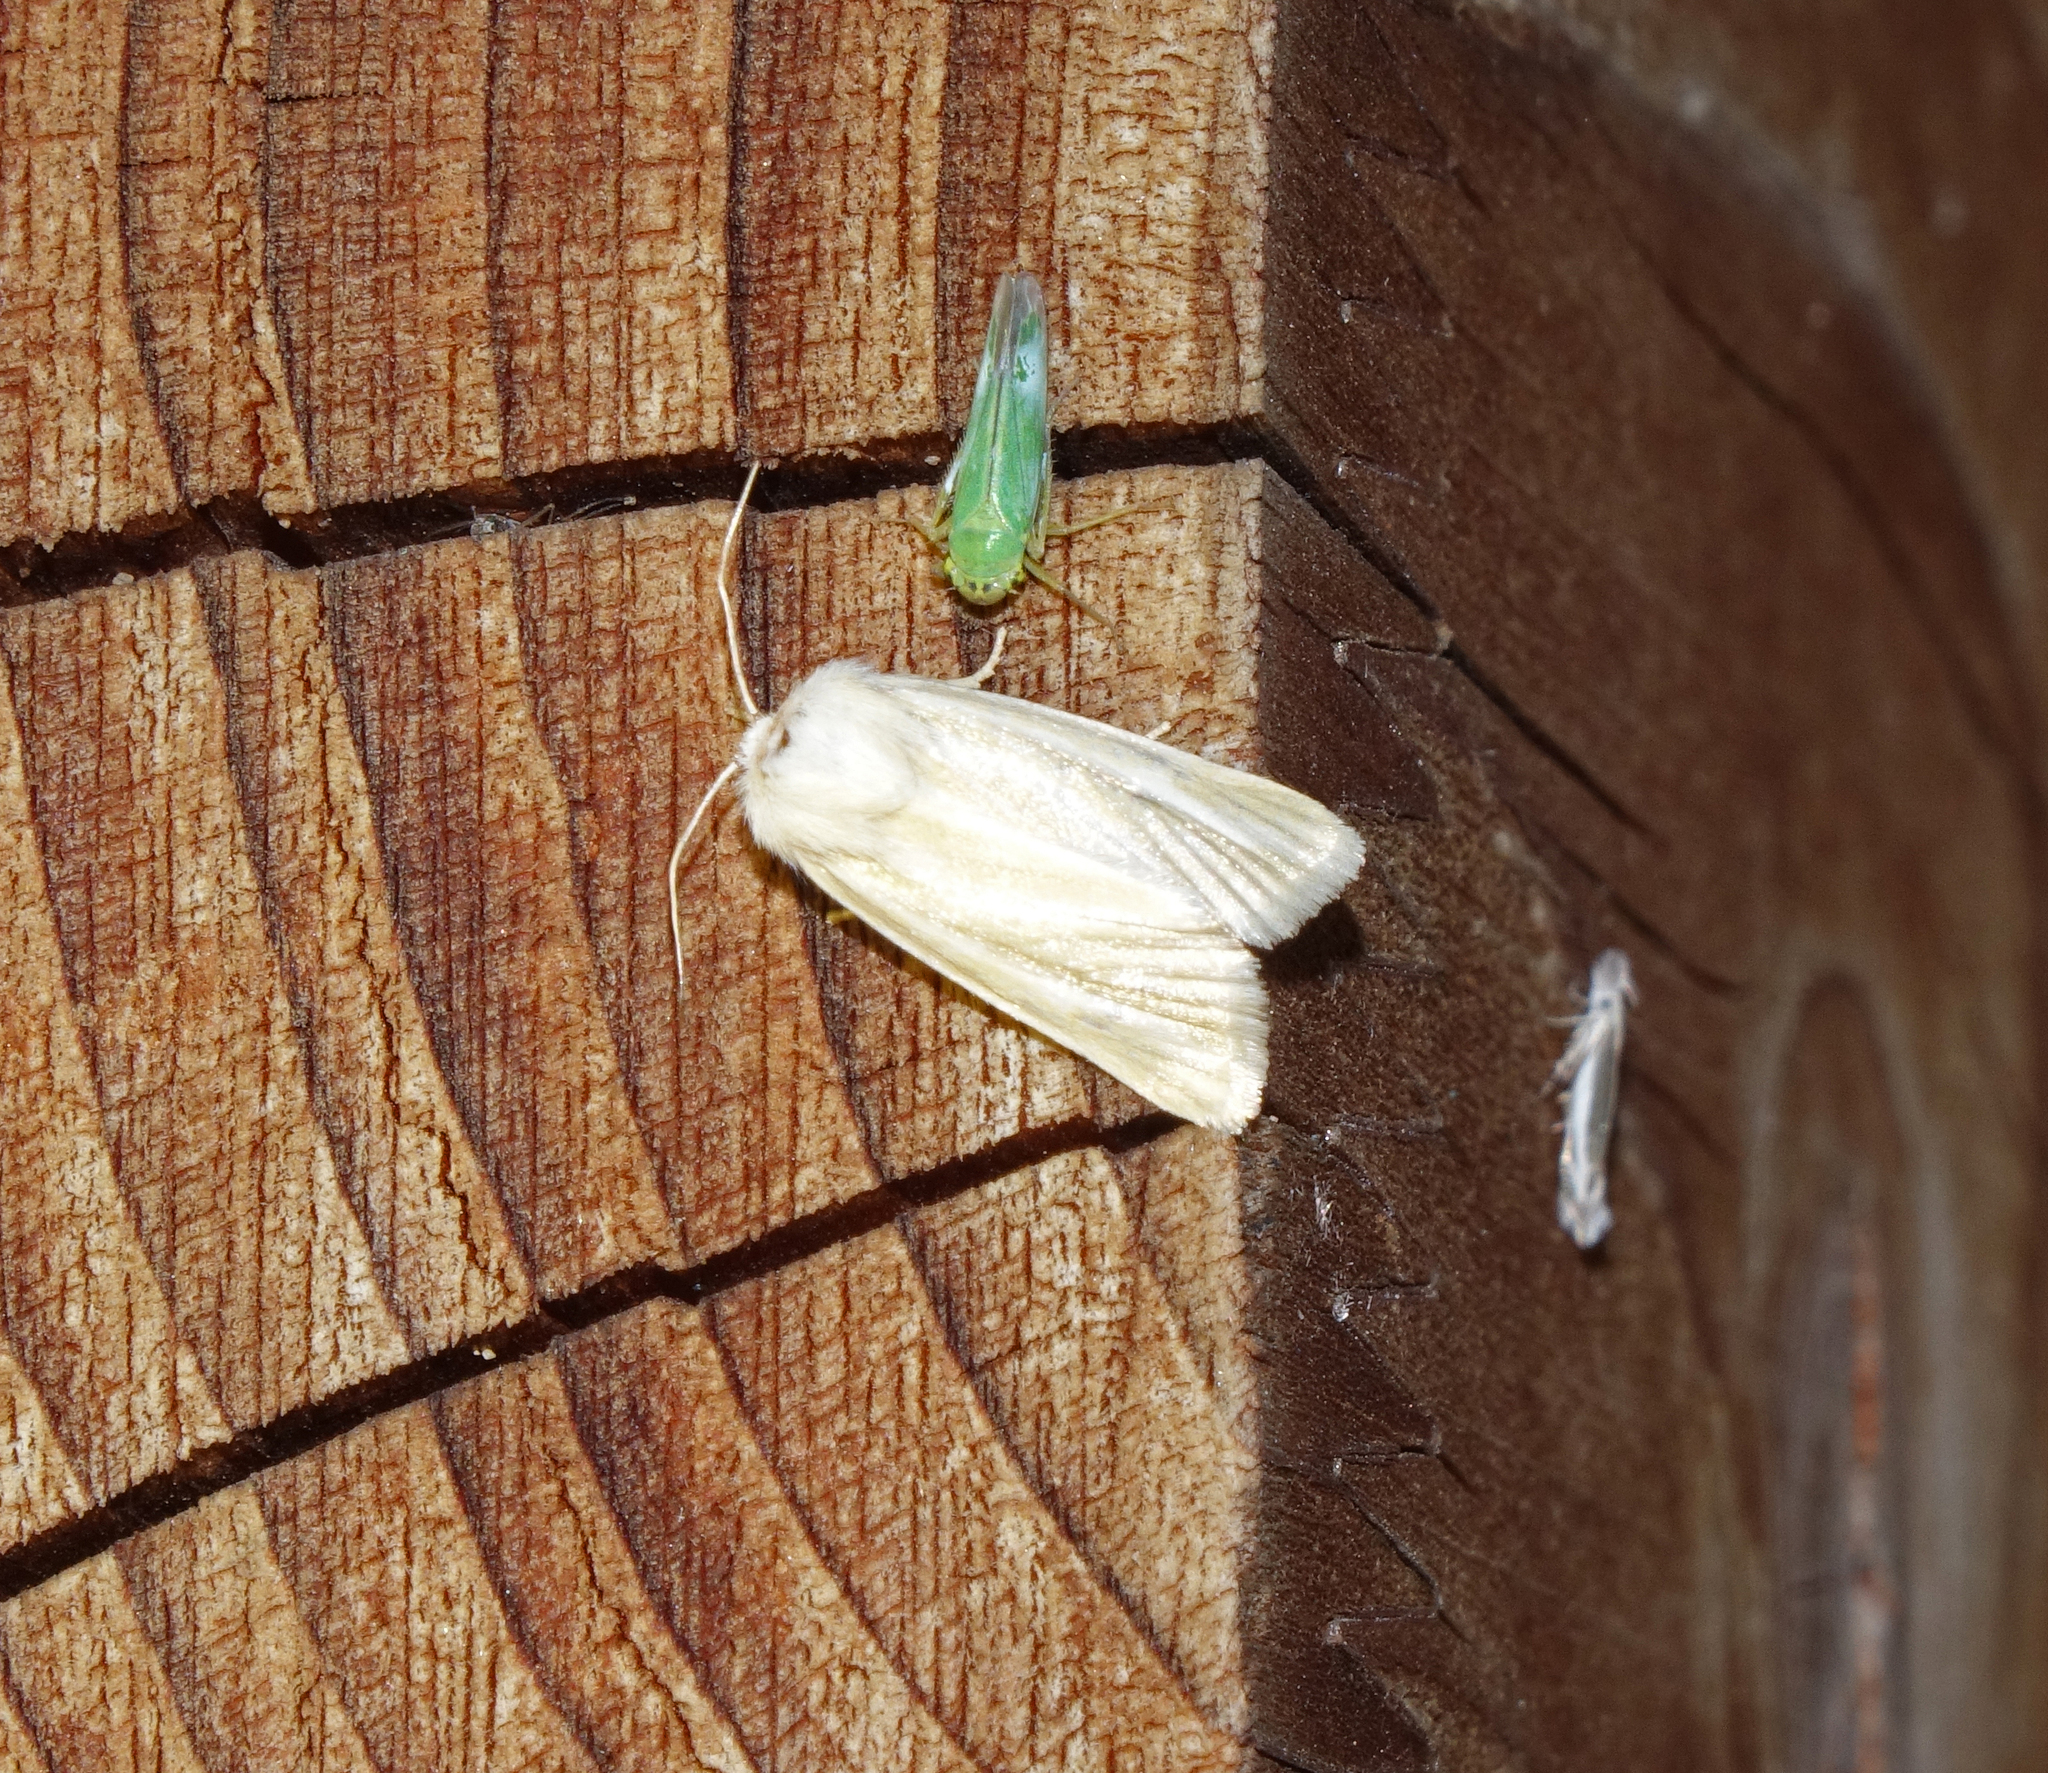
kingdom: Animalia
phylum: Arthropoda
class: Insecta
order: Lepidoptera
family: Noctuidae
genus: Oria
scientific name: Oria musculosa
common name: Brighton wainscot
